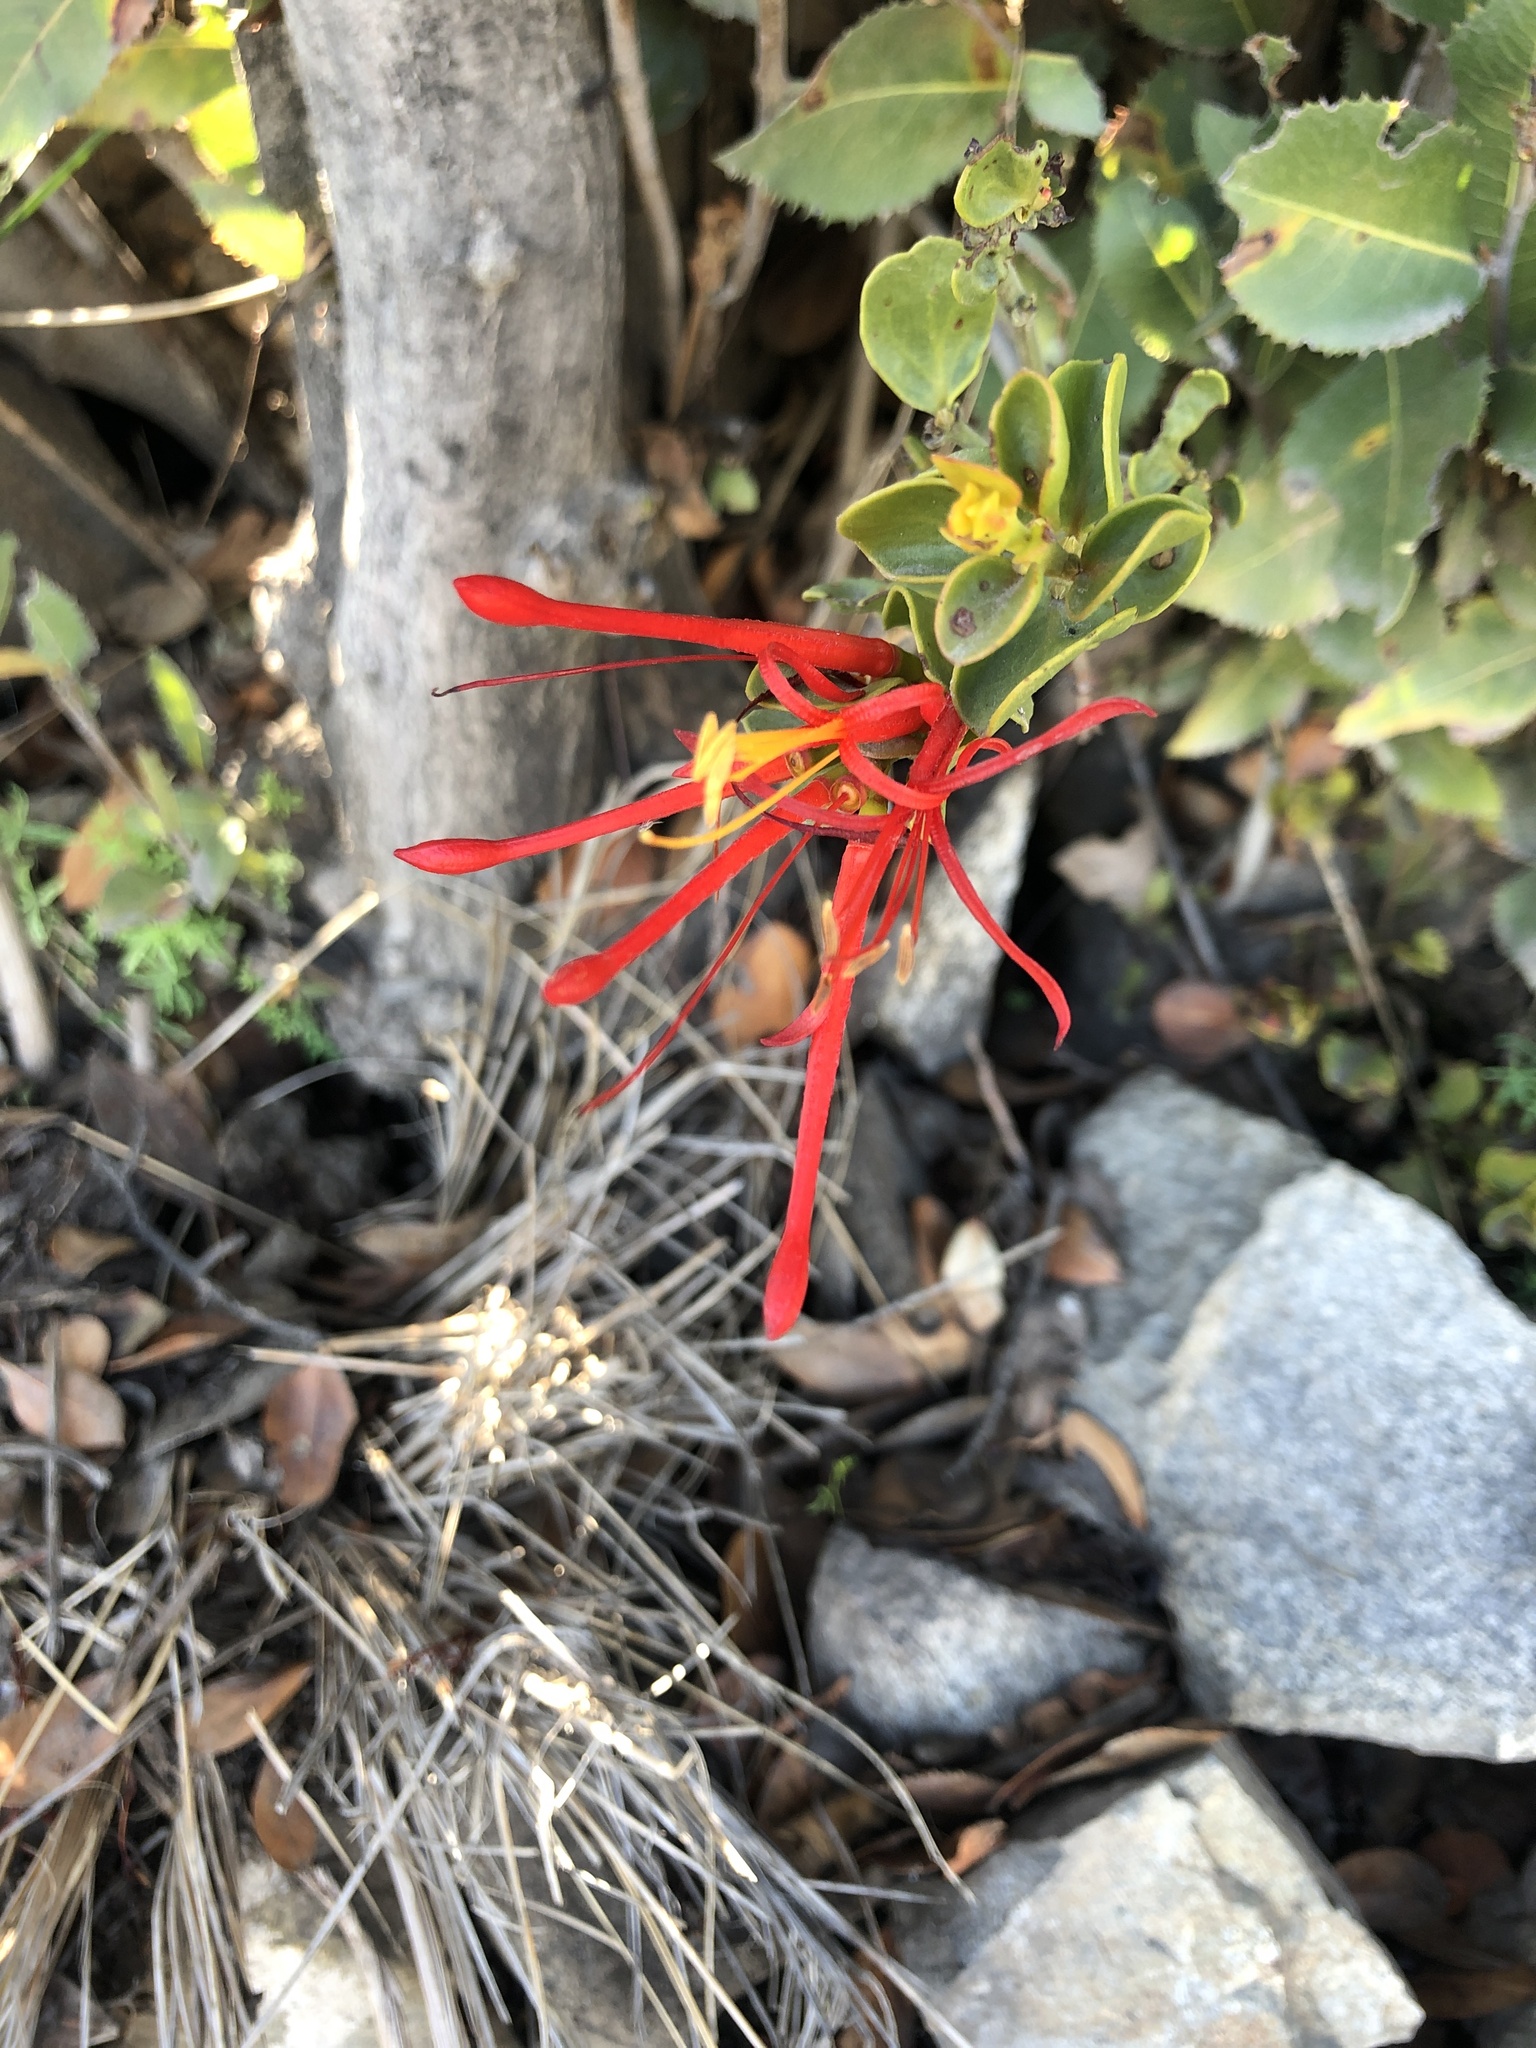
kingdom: Plantae
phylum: Tracheophyta
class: Magnoliopsida
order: Santalales
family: Loranthaceae
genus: Tristerix
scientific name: Tristerix corymbosus
